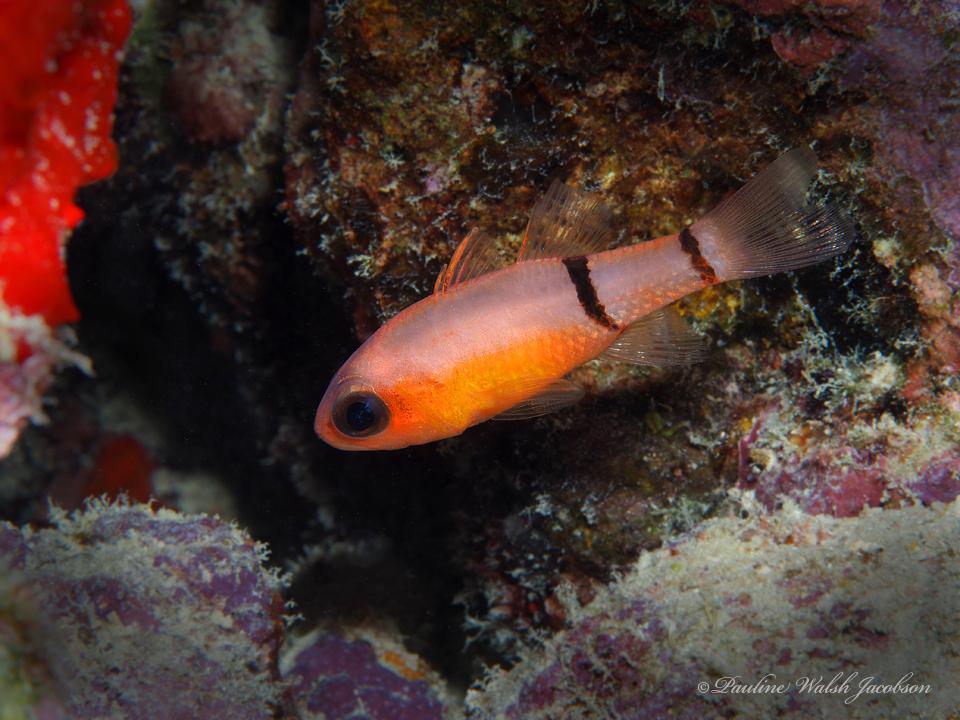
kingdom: Animalia
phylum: Chordata
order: Perciformes
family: Apogonidae
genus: Apogon
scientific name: Apogon binotatus
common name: Barred cardinalfish
